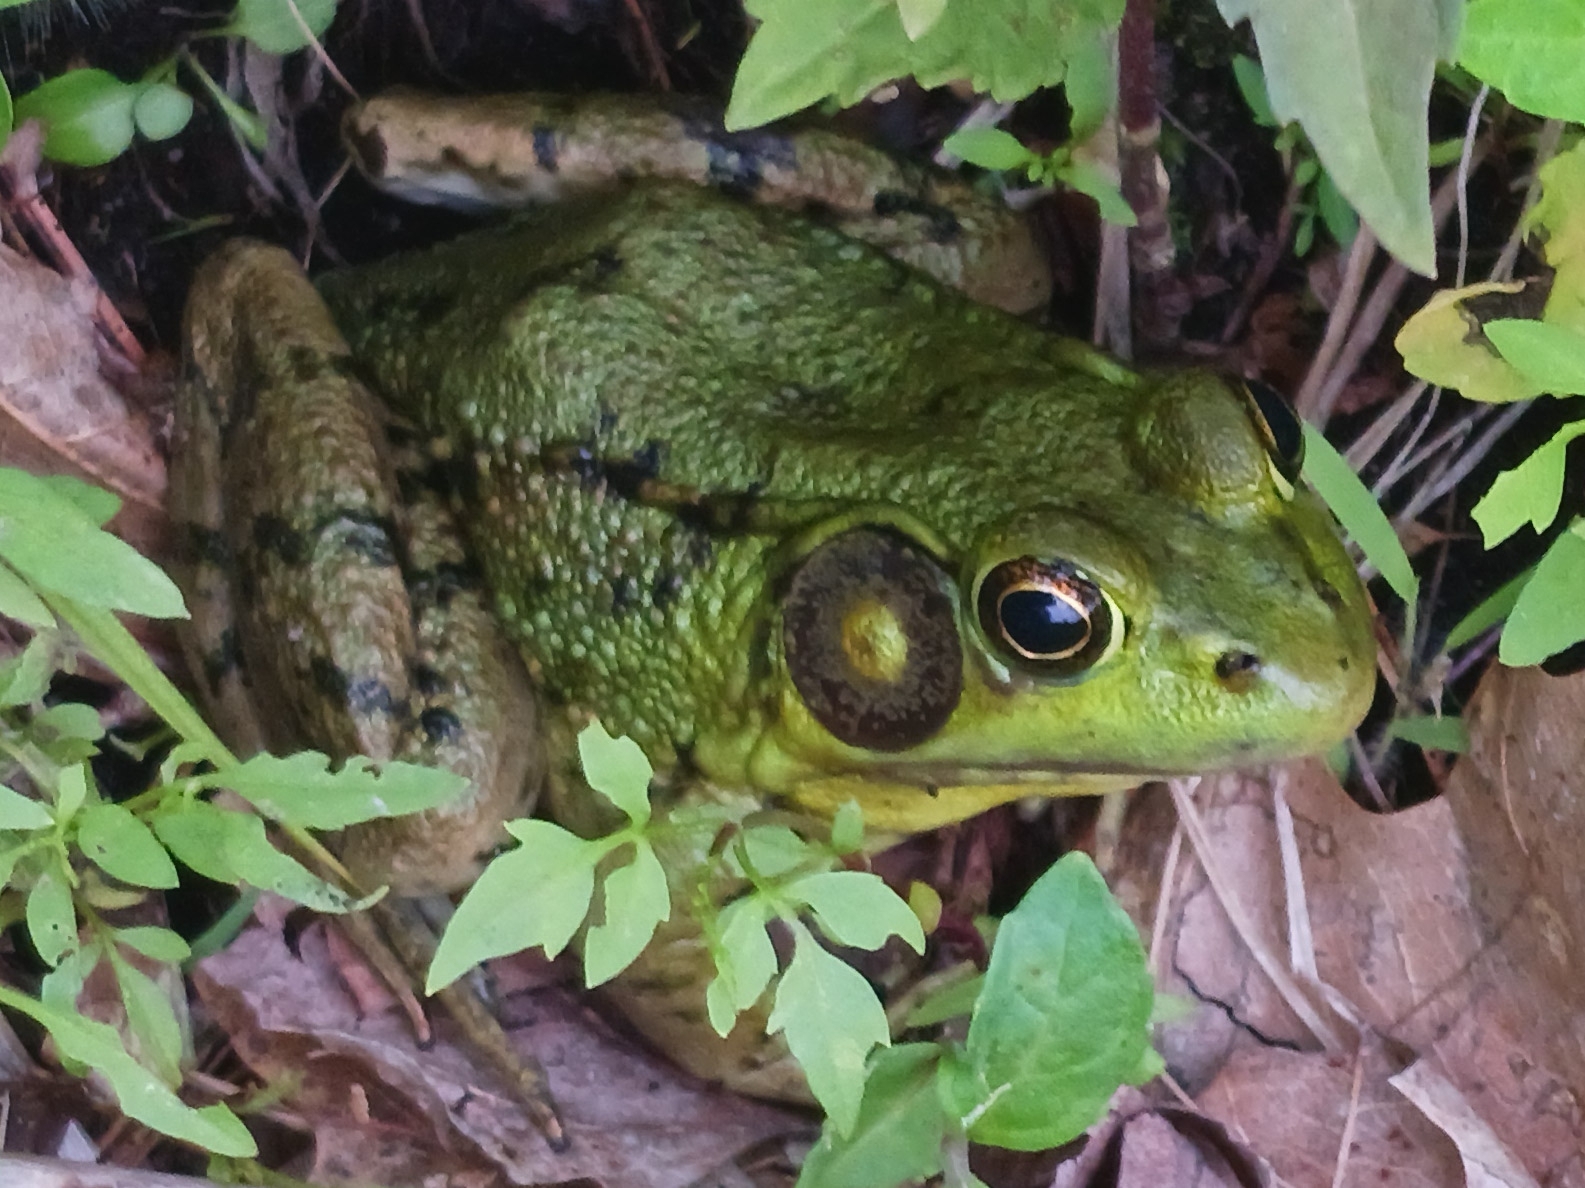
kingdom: Animalia
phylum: Chordata
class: Amphibia
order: Anura
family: Ranidae
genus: Lithobates
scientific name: Lithobates clamitans
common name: Green frog
